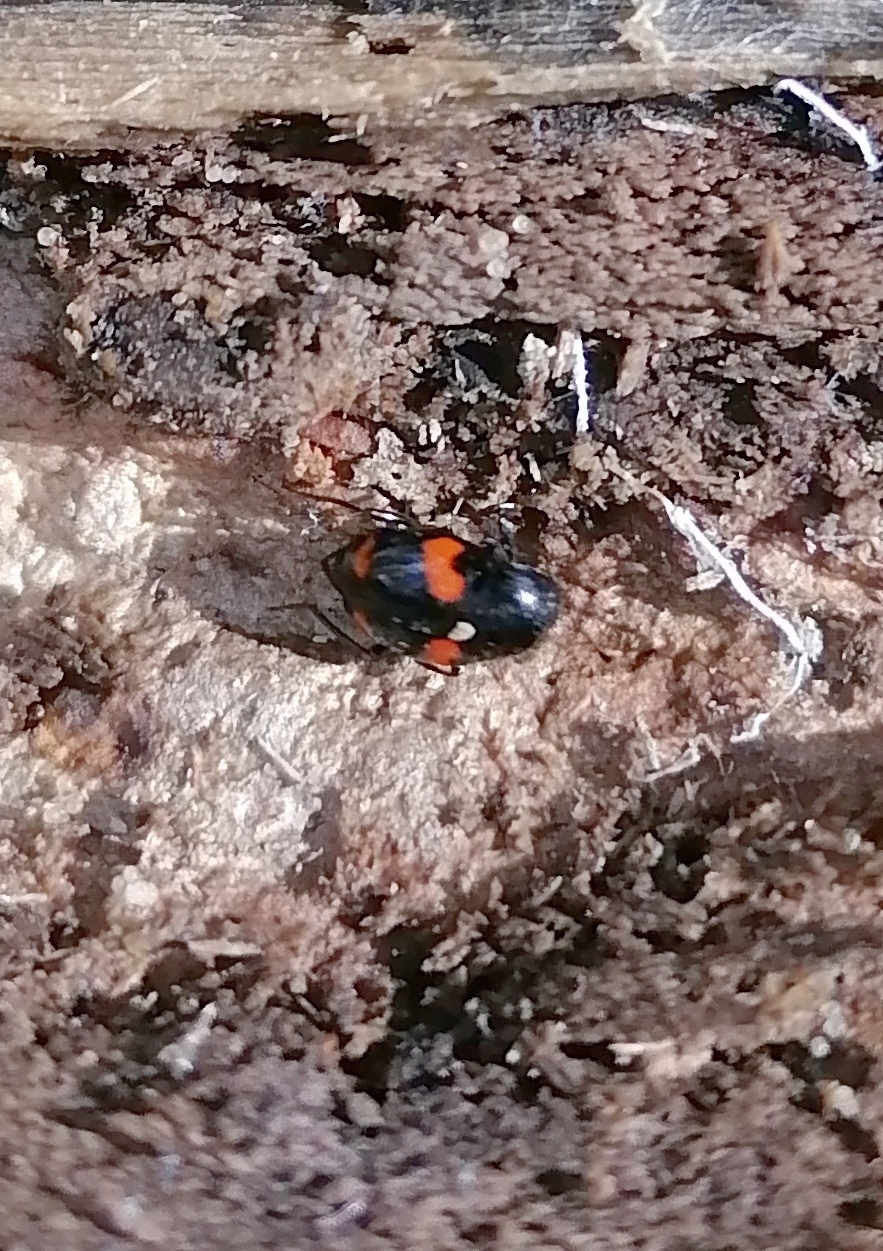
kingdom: Animalia
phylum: Arthropoda
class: Insecta
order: Coleoptera
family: Staphylinidae
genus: Scaphidium
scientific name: Scaphidium quadrimaculatum
